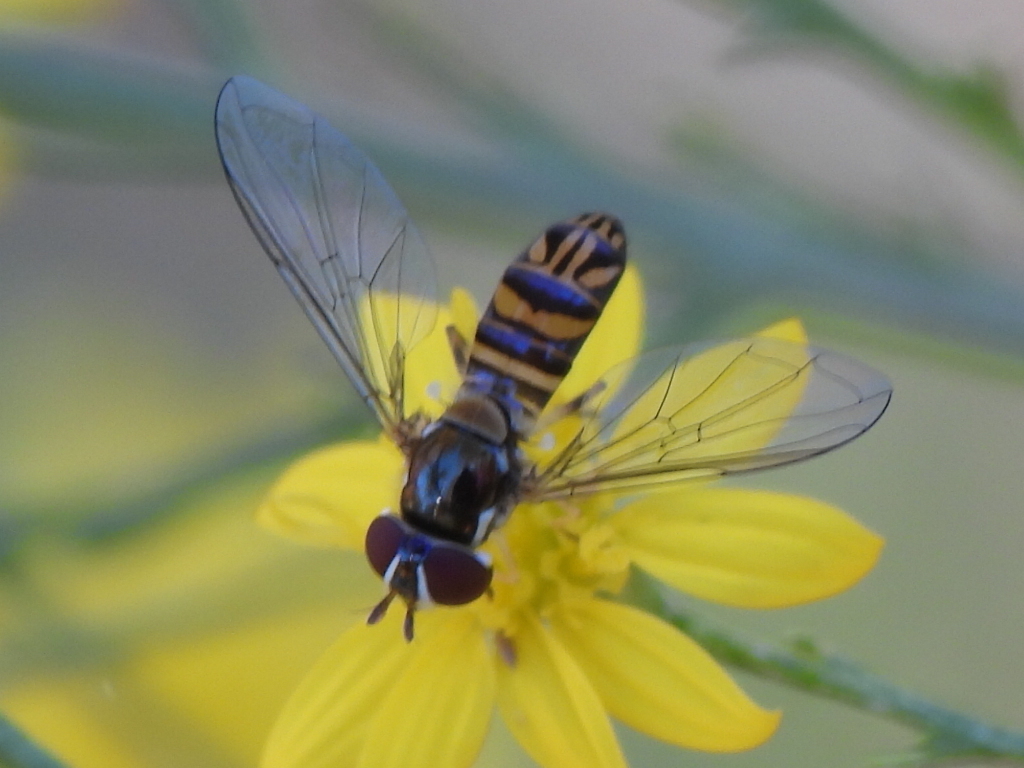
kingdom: Animalia
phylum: Arthropoda
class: Insecta
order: Diptera
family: Syrphidae
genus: Allograpta
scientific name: Allograpta obliqua
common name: Common oblique syrphid
